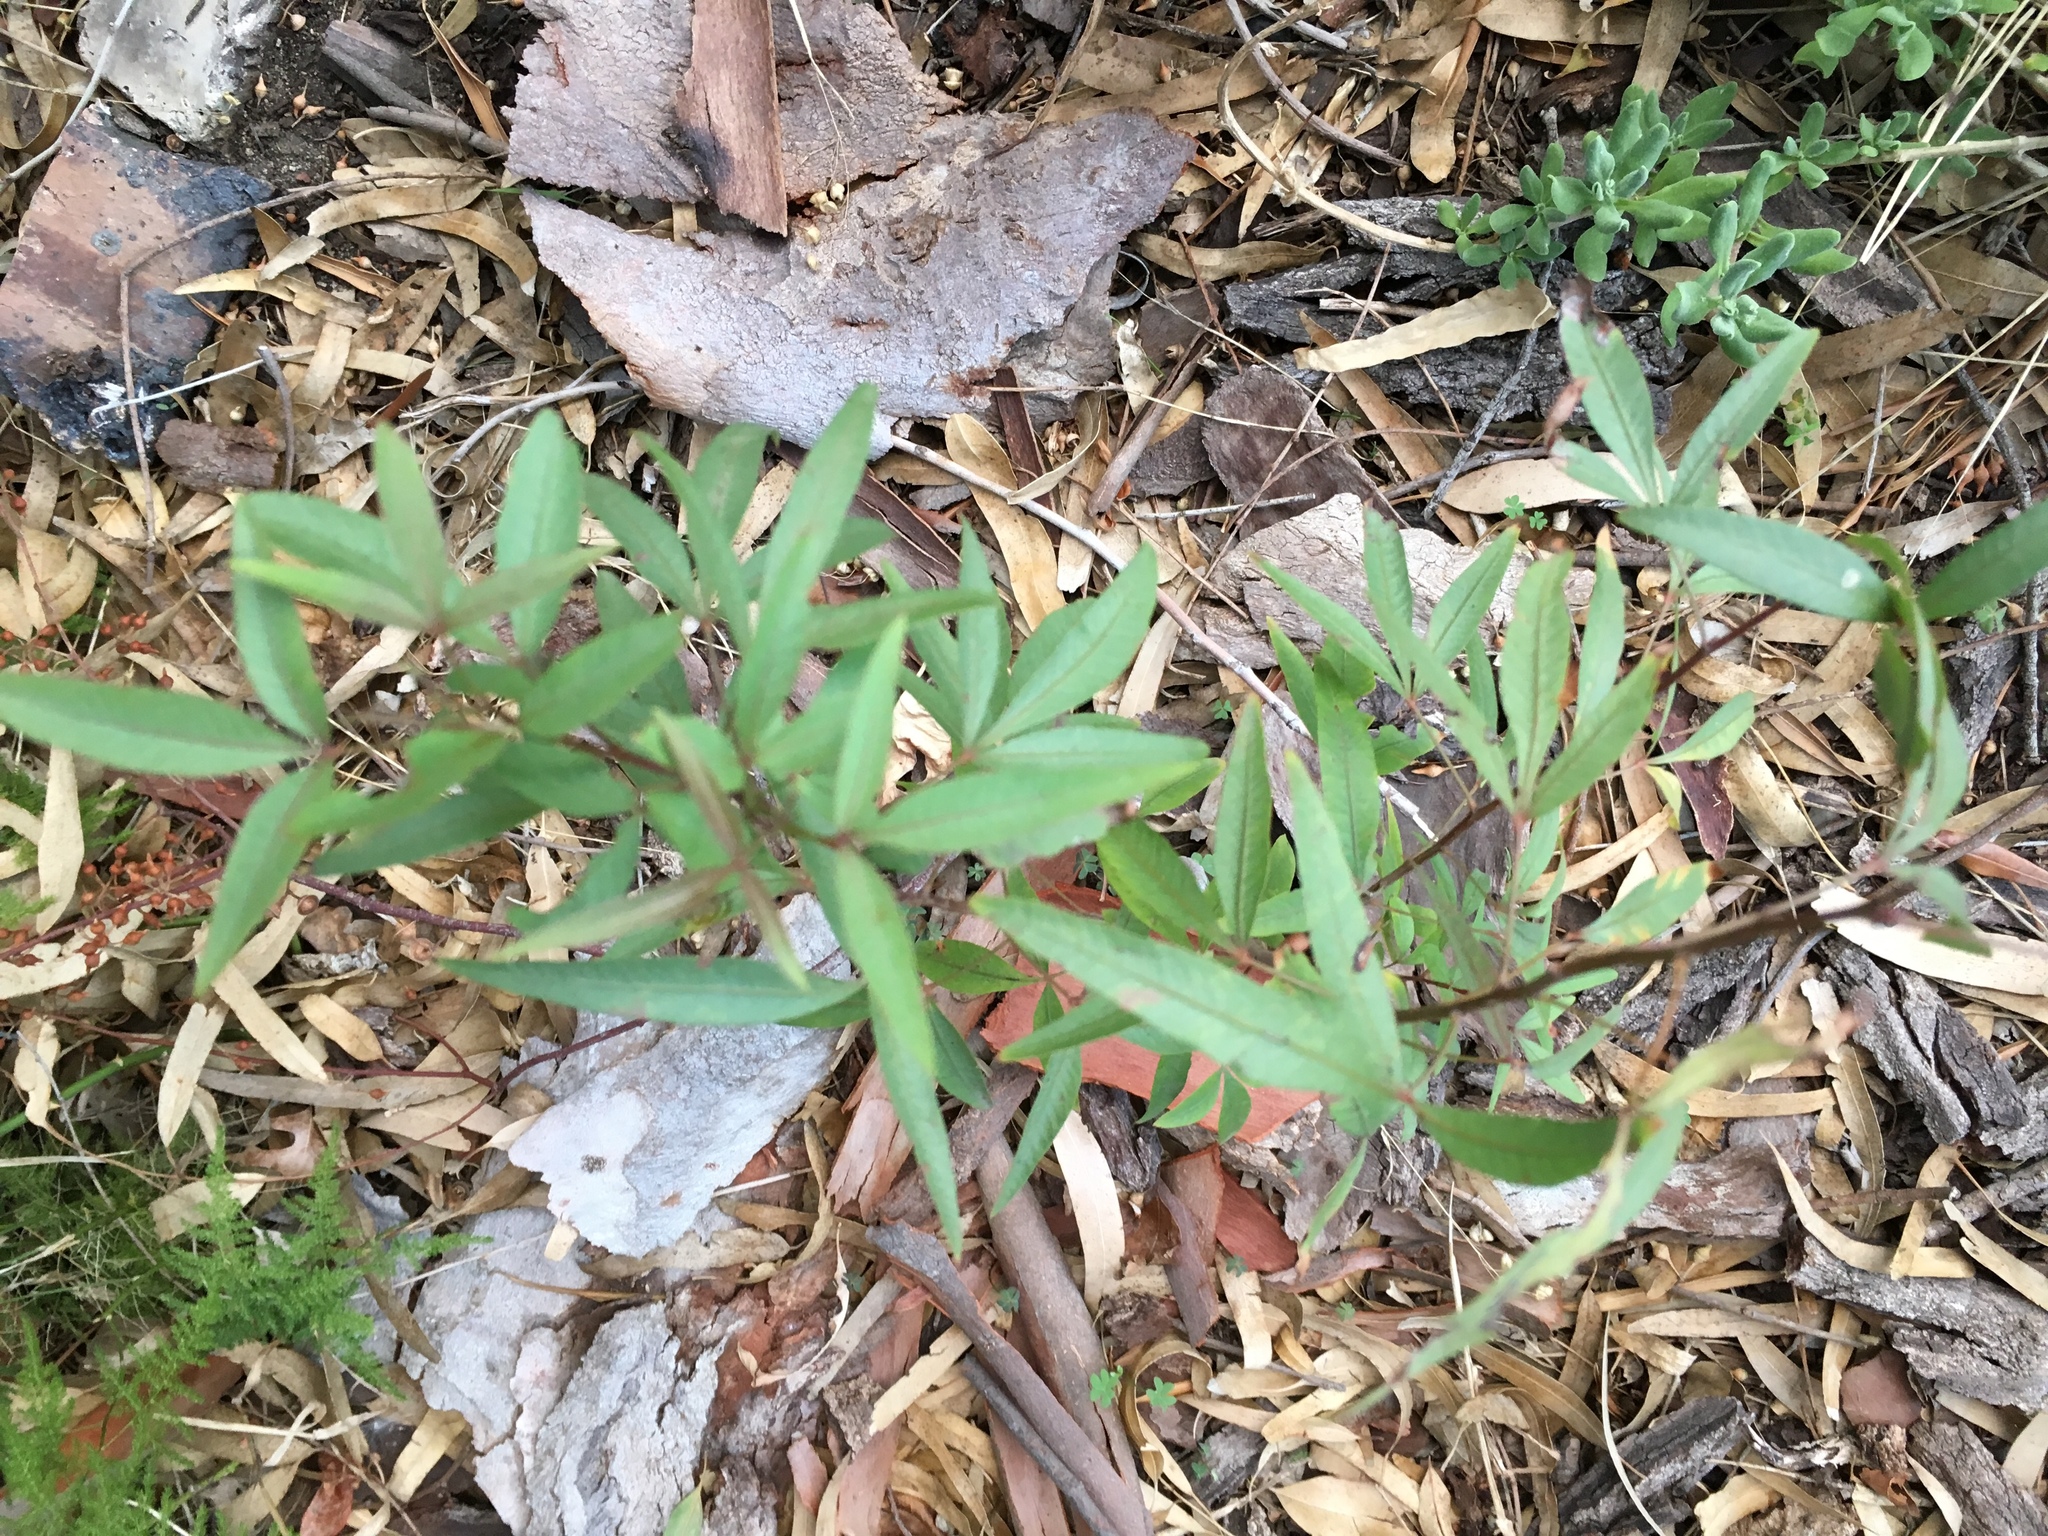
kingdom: Plantae
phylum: Tracheophyta
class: Magnoliopsida
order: Sapindales
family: Anacardiaceae
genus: Searsia
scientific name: Searsia pendulina
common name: White karee
